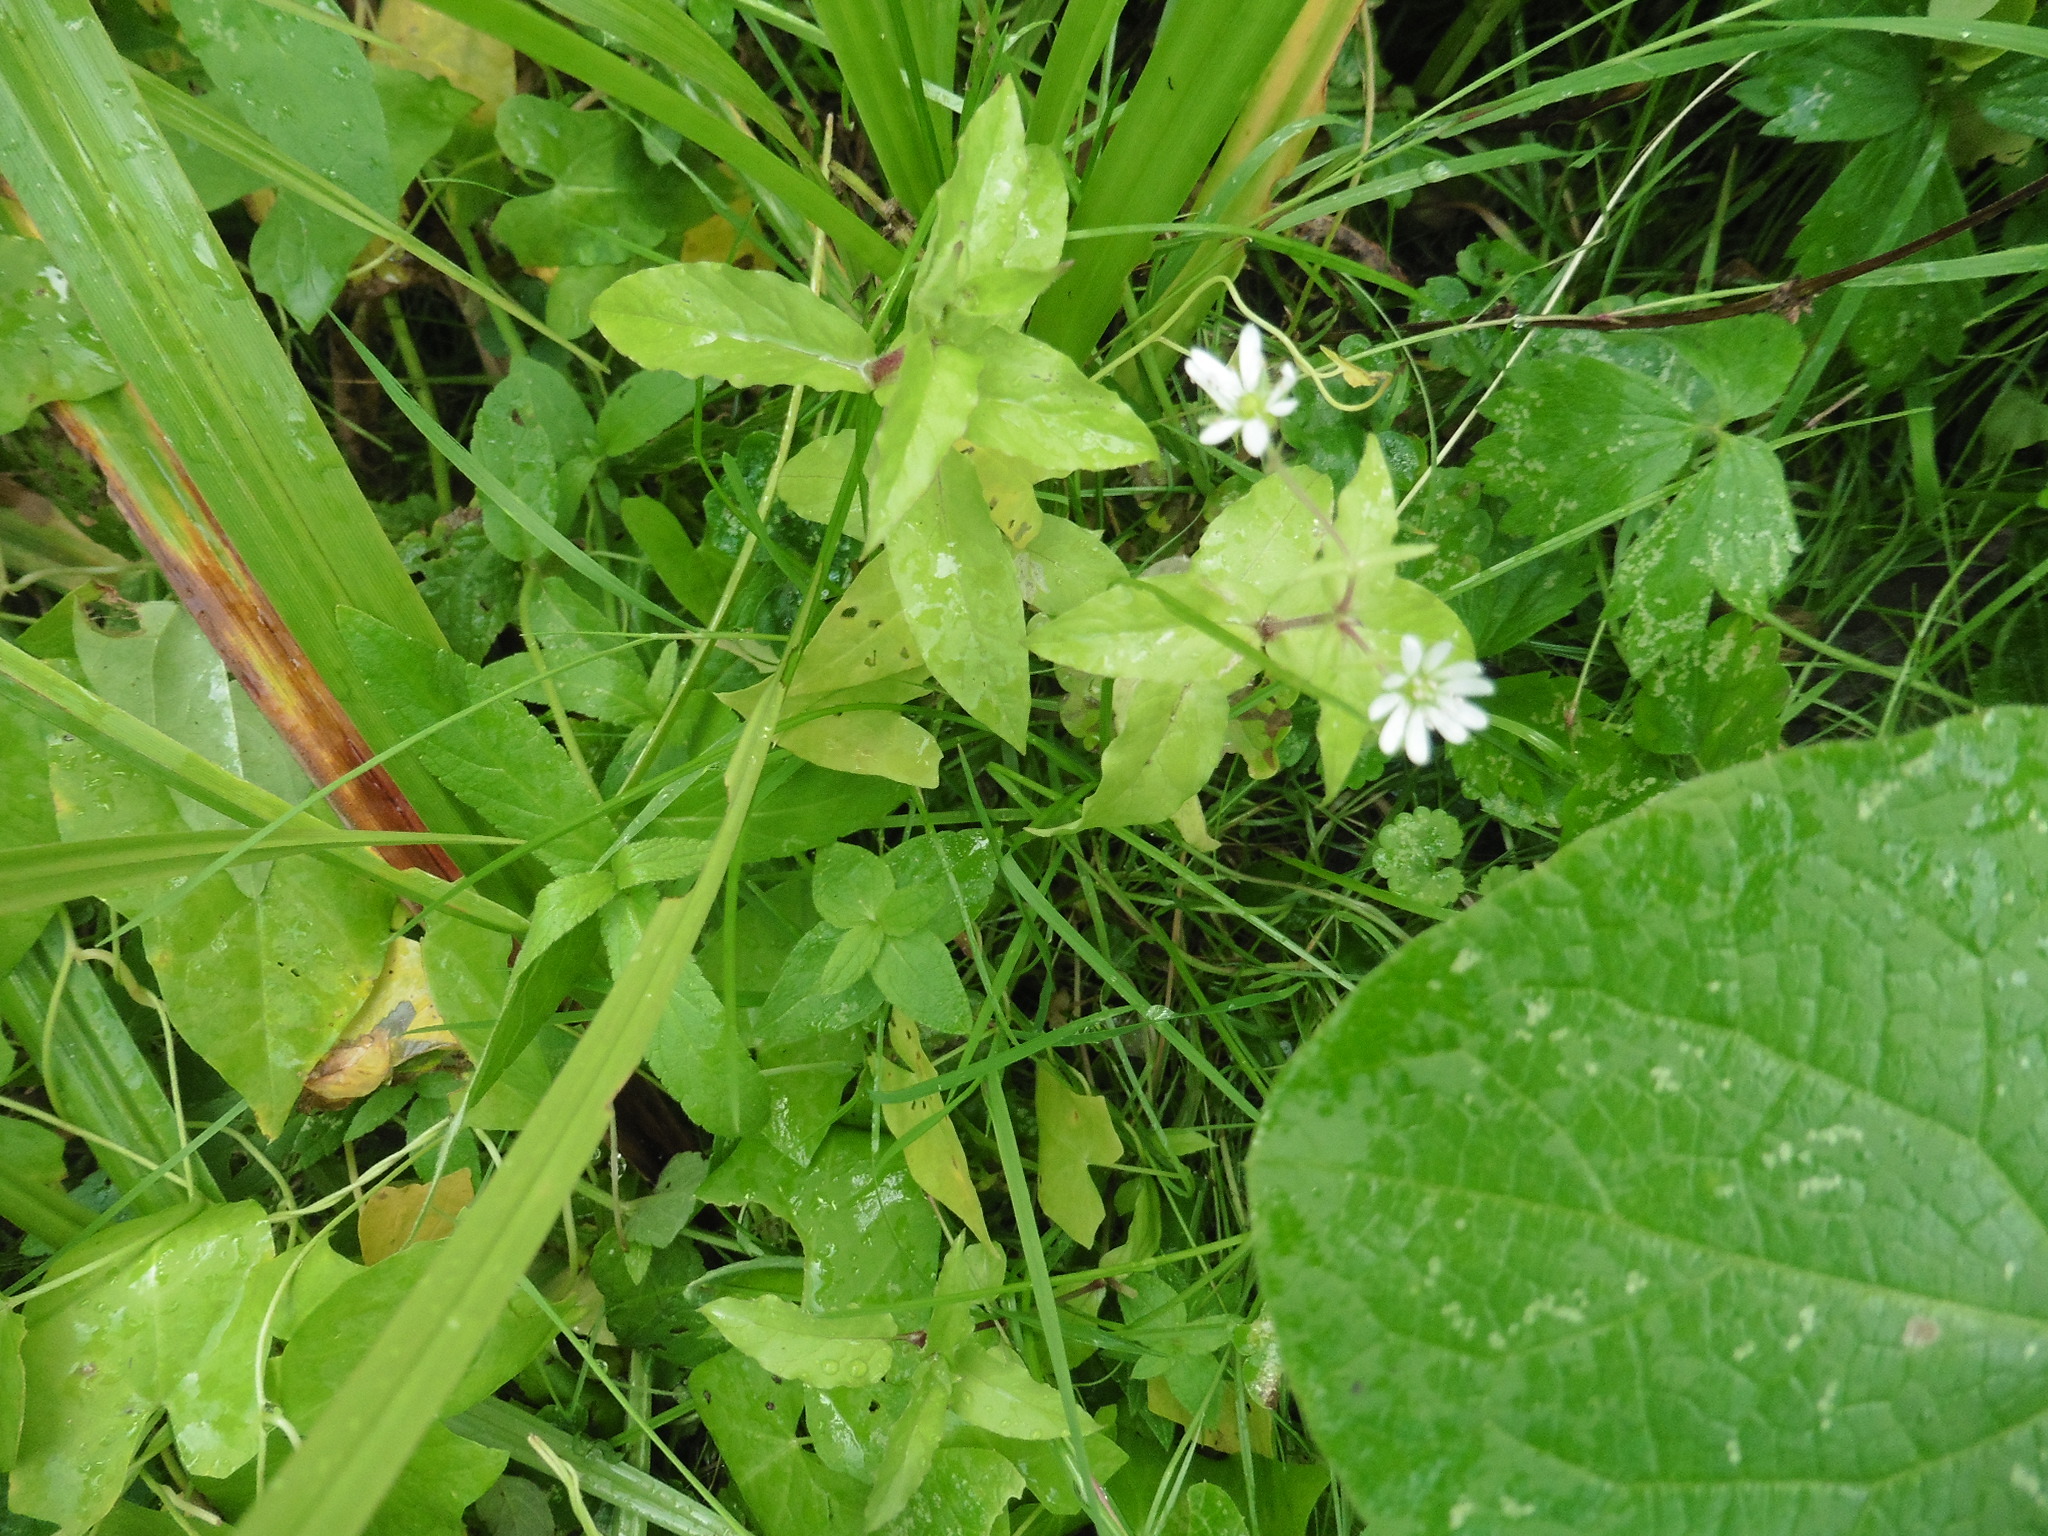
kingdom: Plantae
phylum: Tracheophyta
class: Magnoliopsida
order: Caryophyllales
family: Caryophyllaceae
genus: Stellaria
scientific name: Stellaria aquatica
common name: Water chickweed
